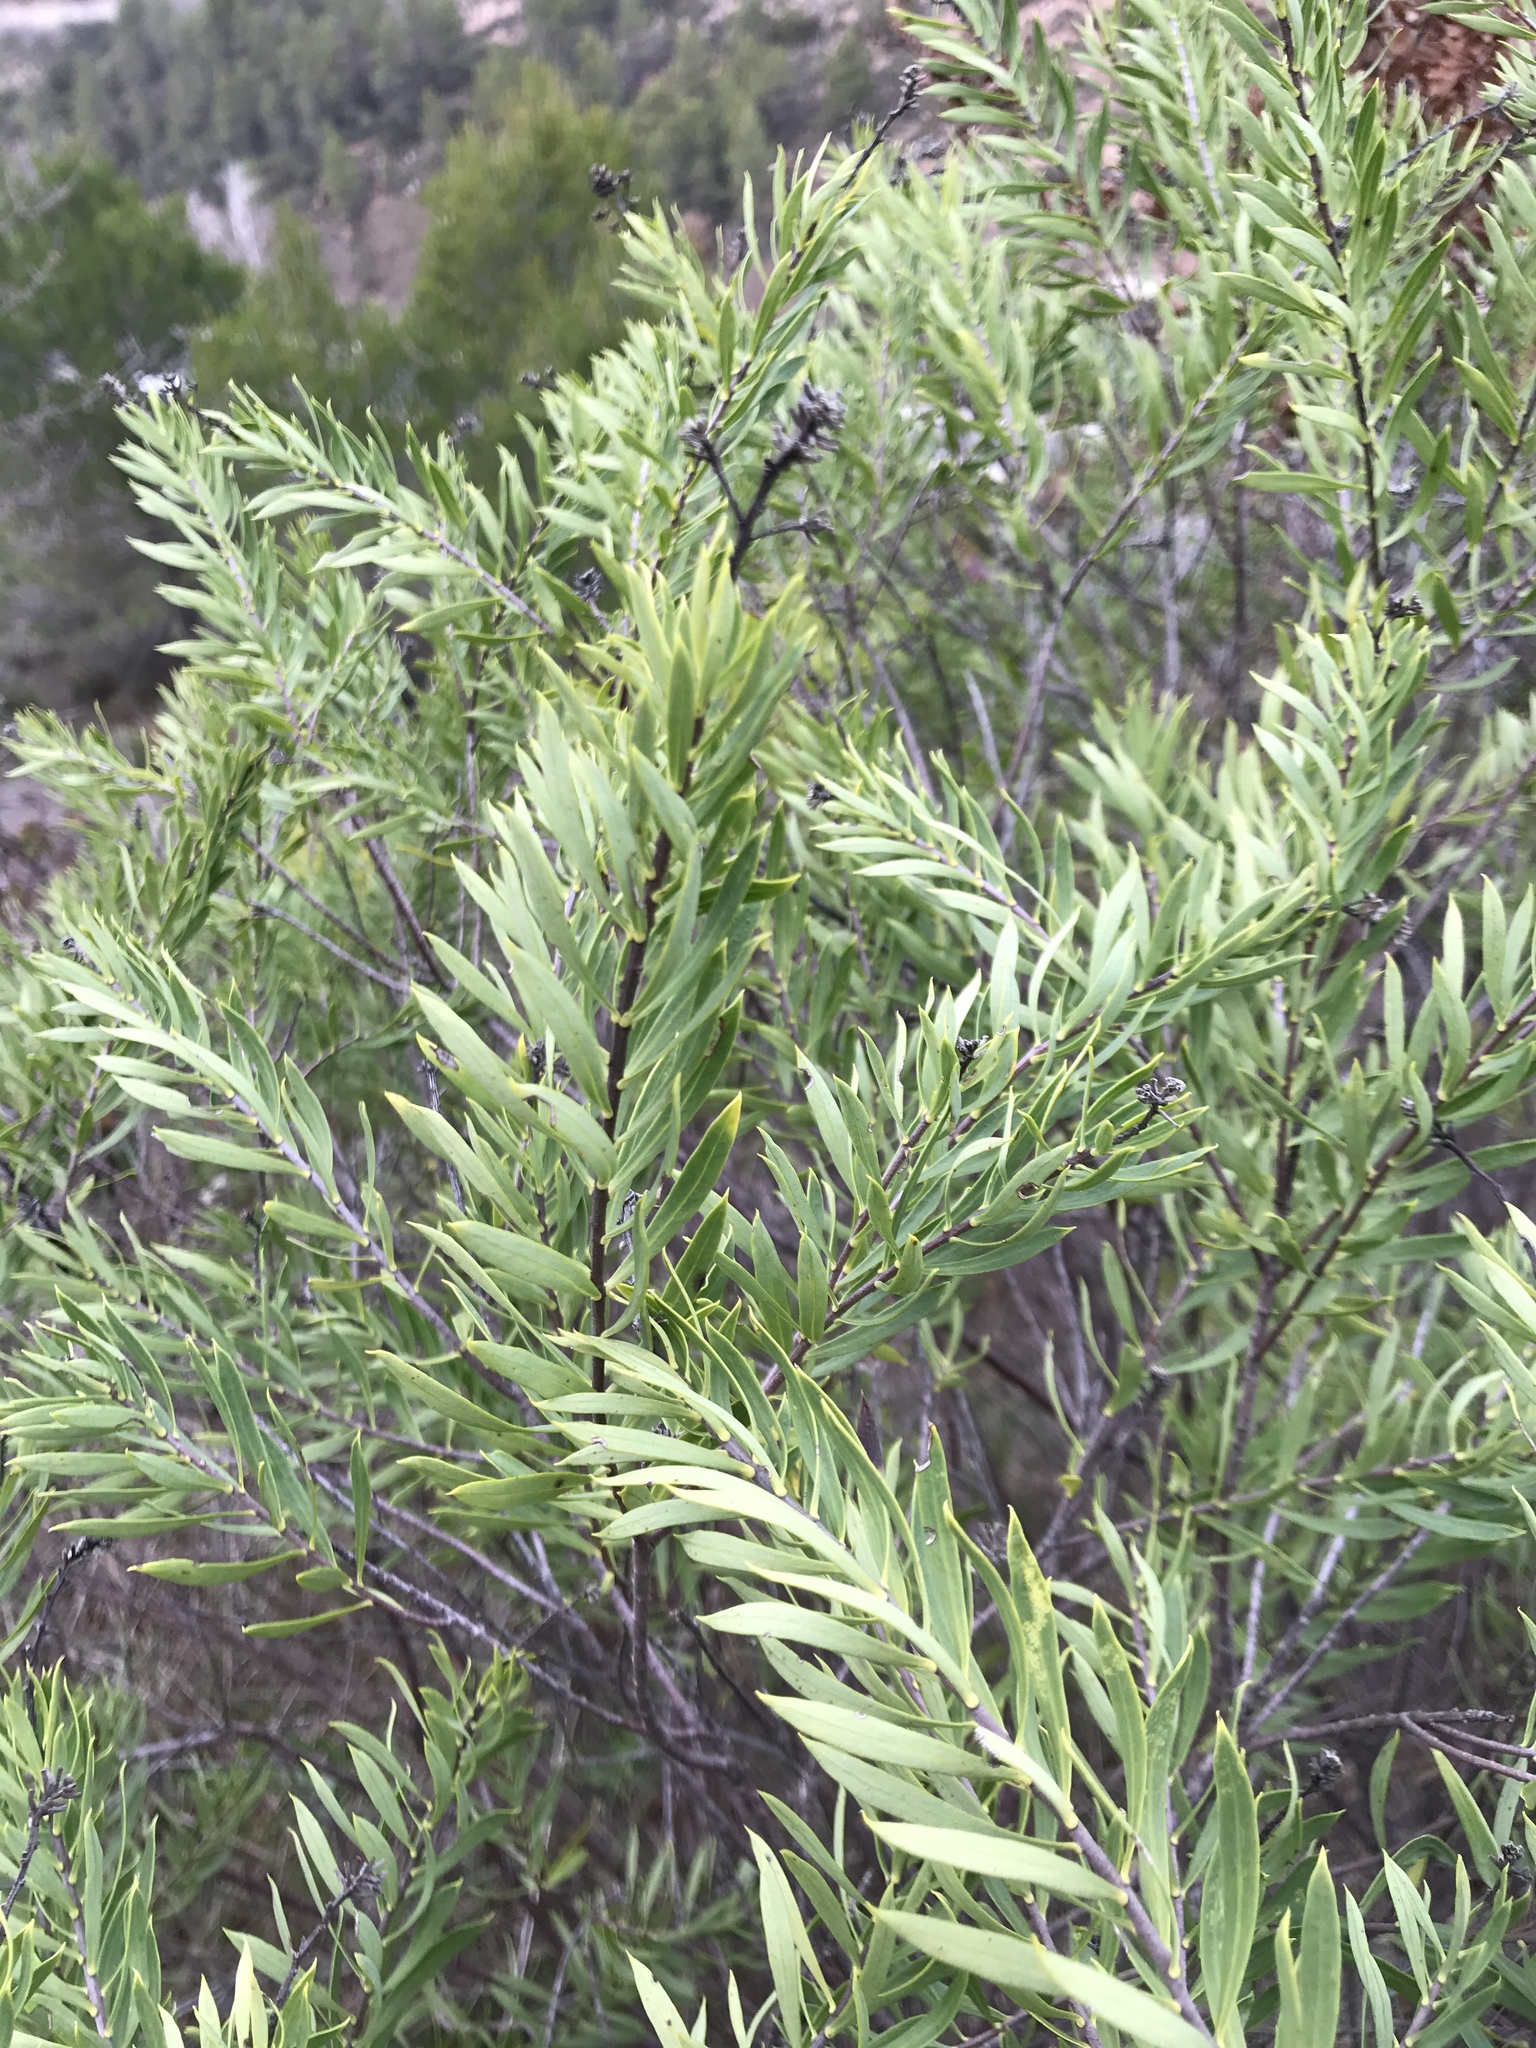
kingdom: Plantae
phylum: Tracheophyta
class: Magnoliopsida
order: Malvales
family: Thymelaeaceae
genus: Daphne
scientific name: Daphne gnidium
